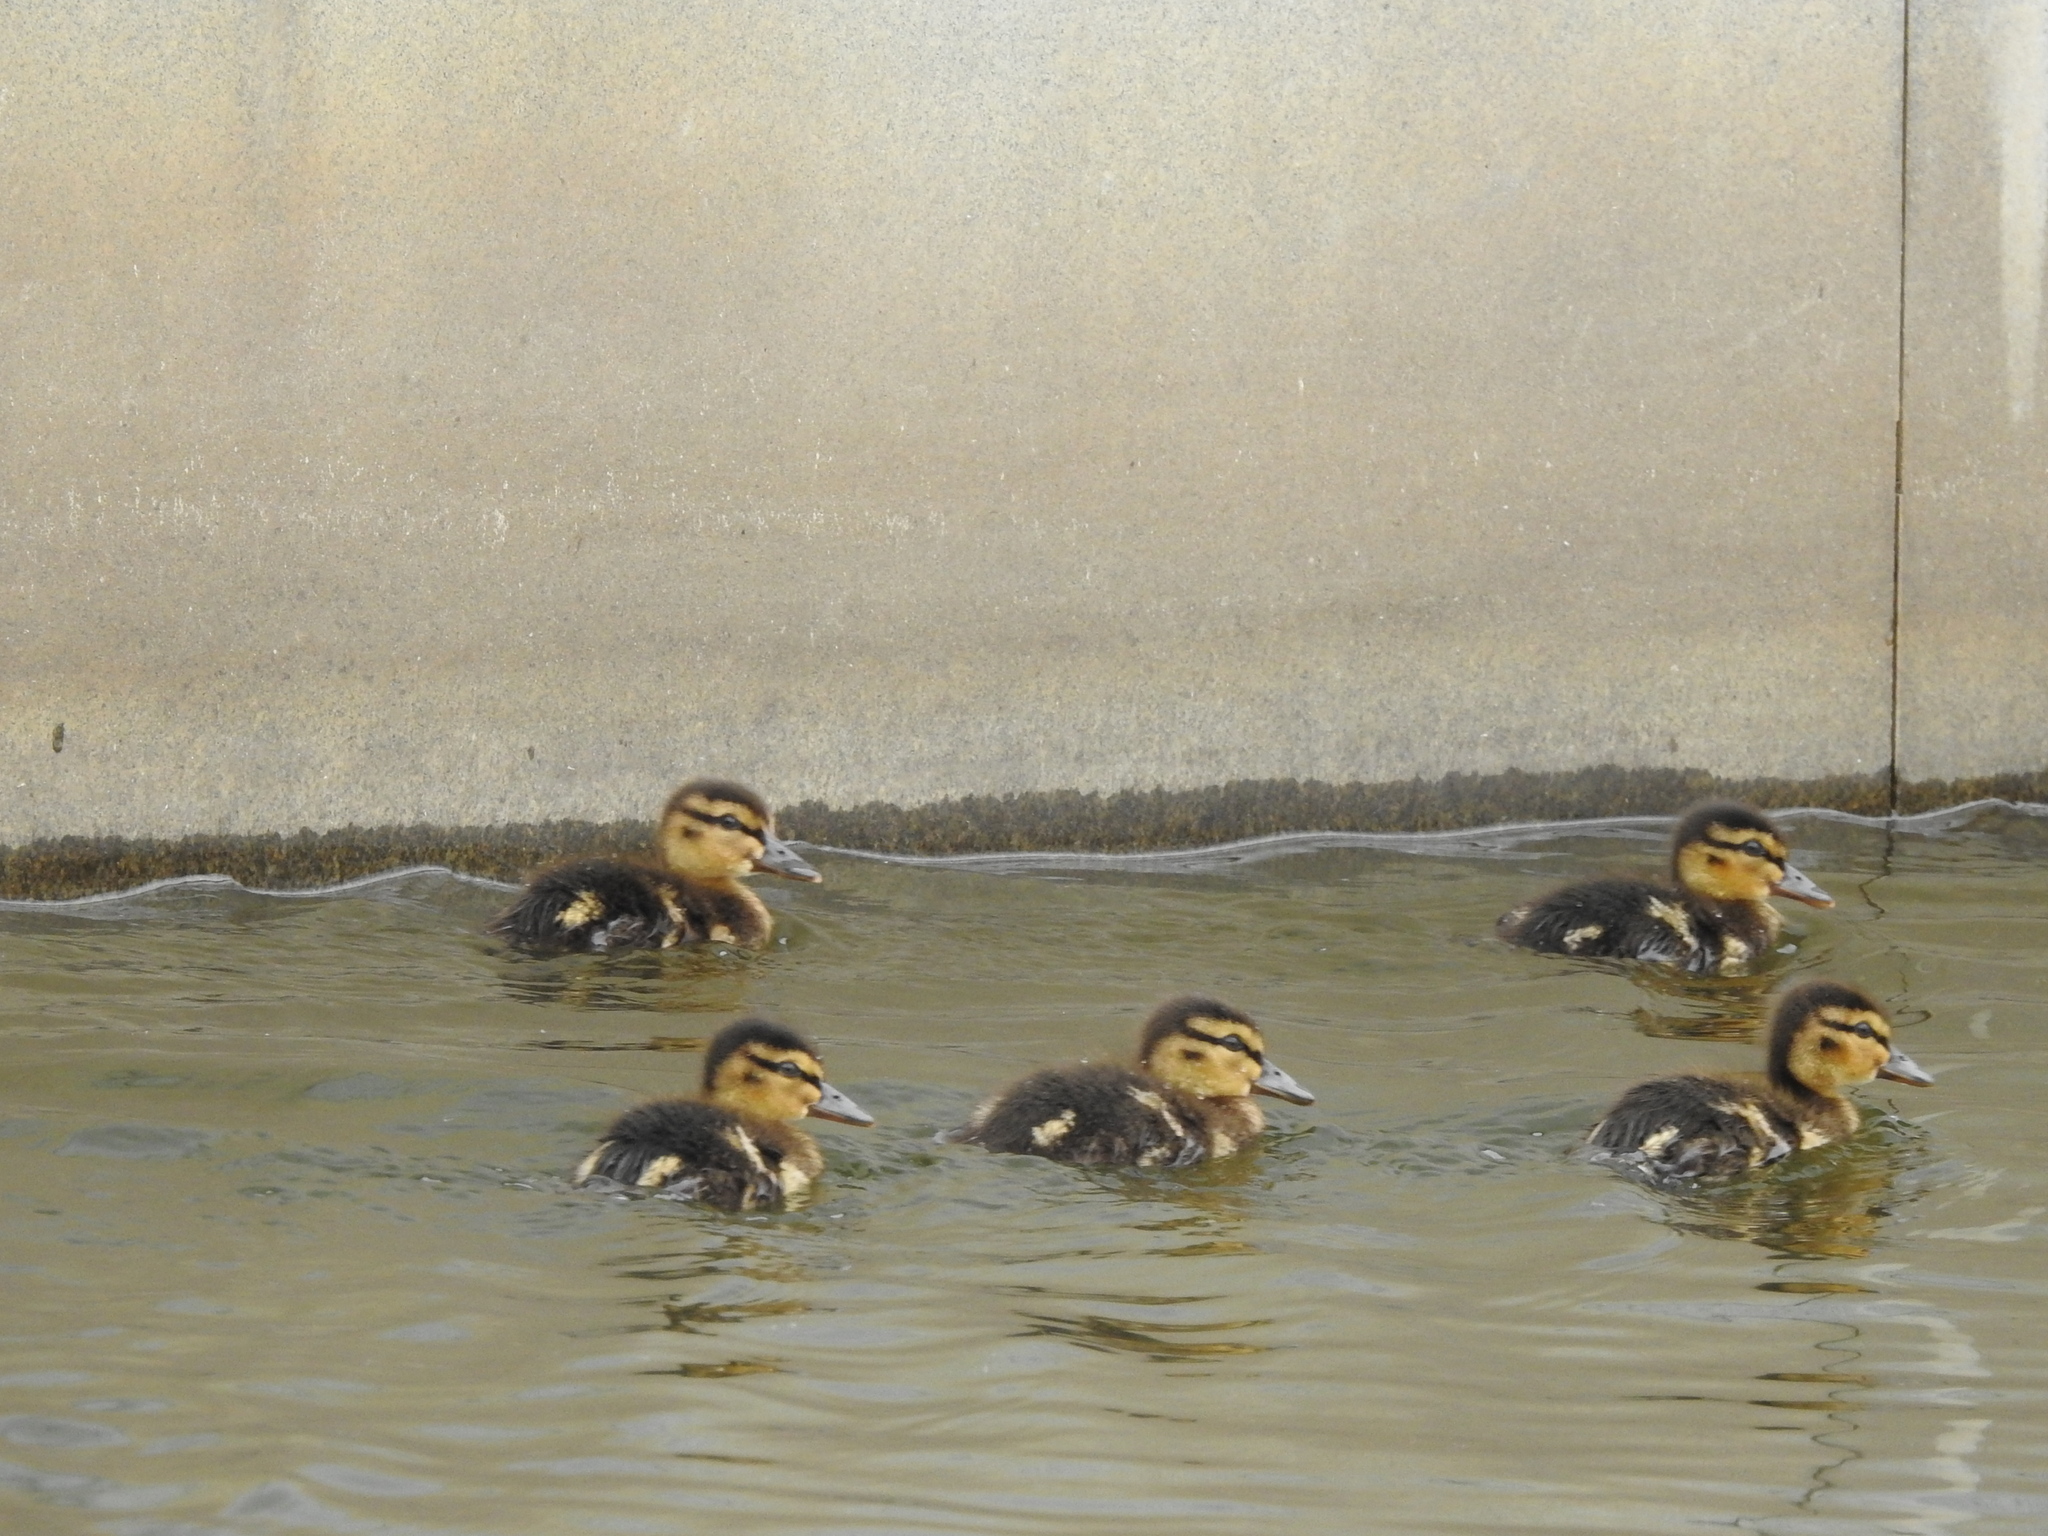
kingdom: Animalia
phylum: Chordata
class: Aves
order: Anseriformes
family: Anatidae
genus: Anas
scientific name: Anas platyrhynchos
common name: Mallard
